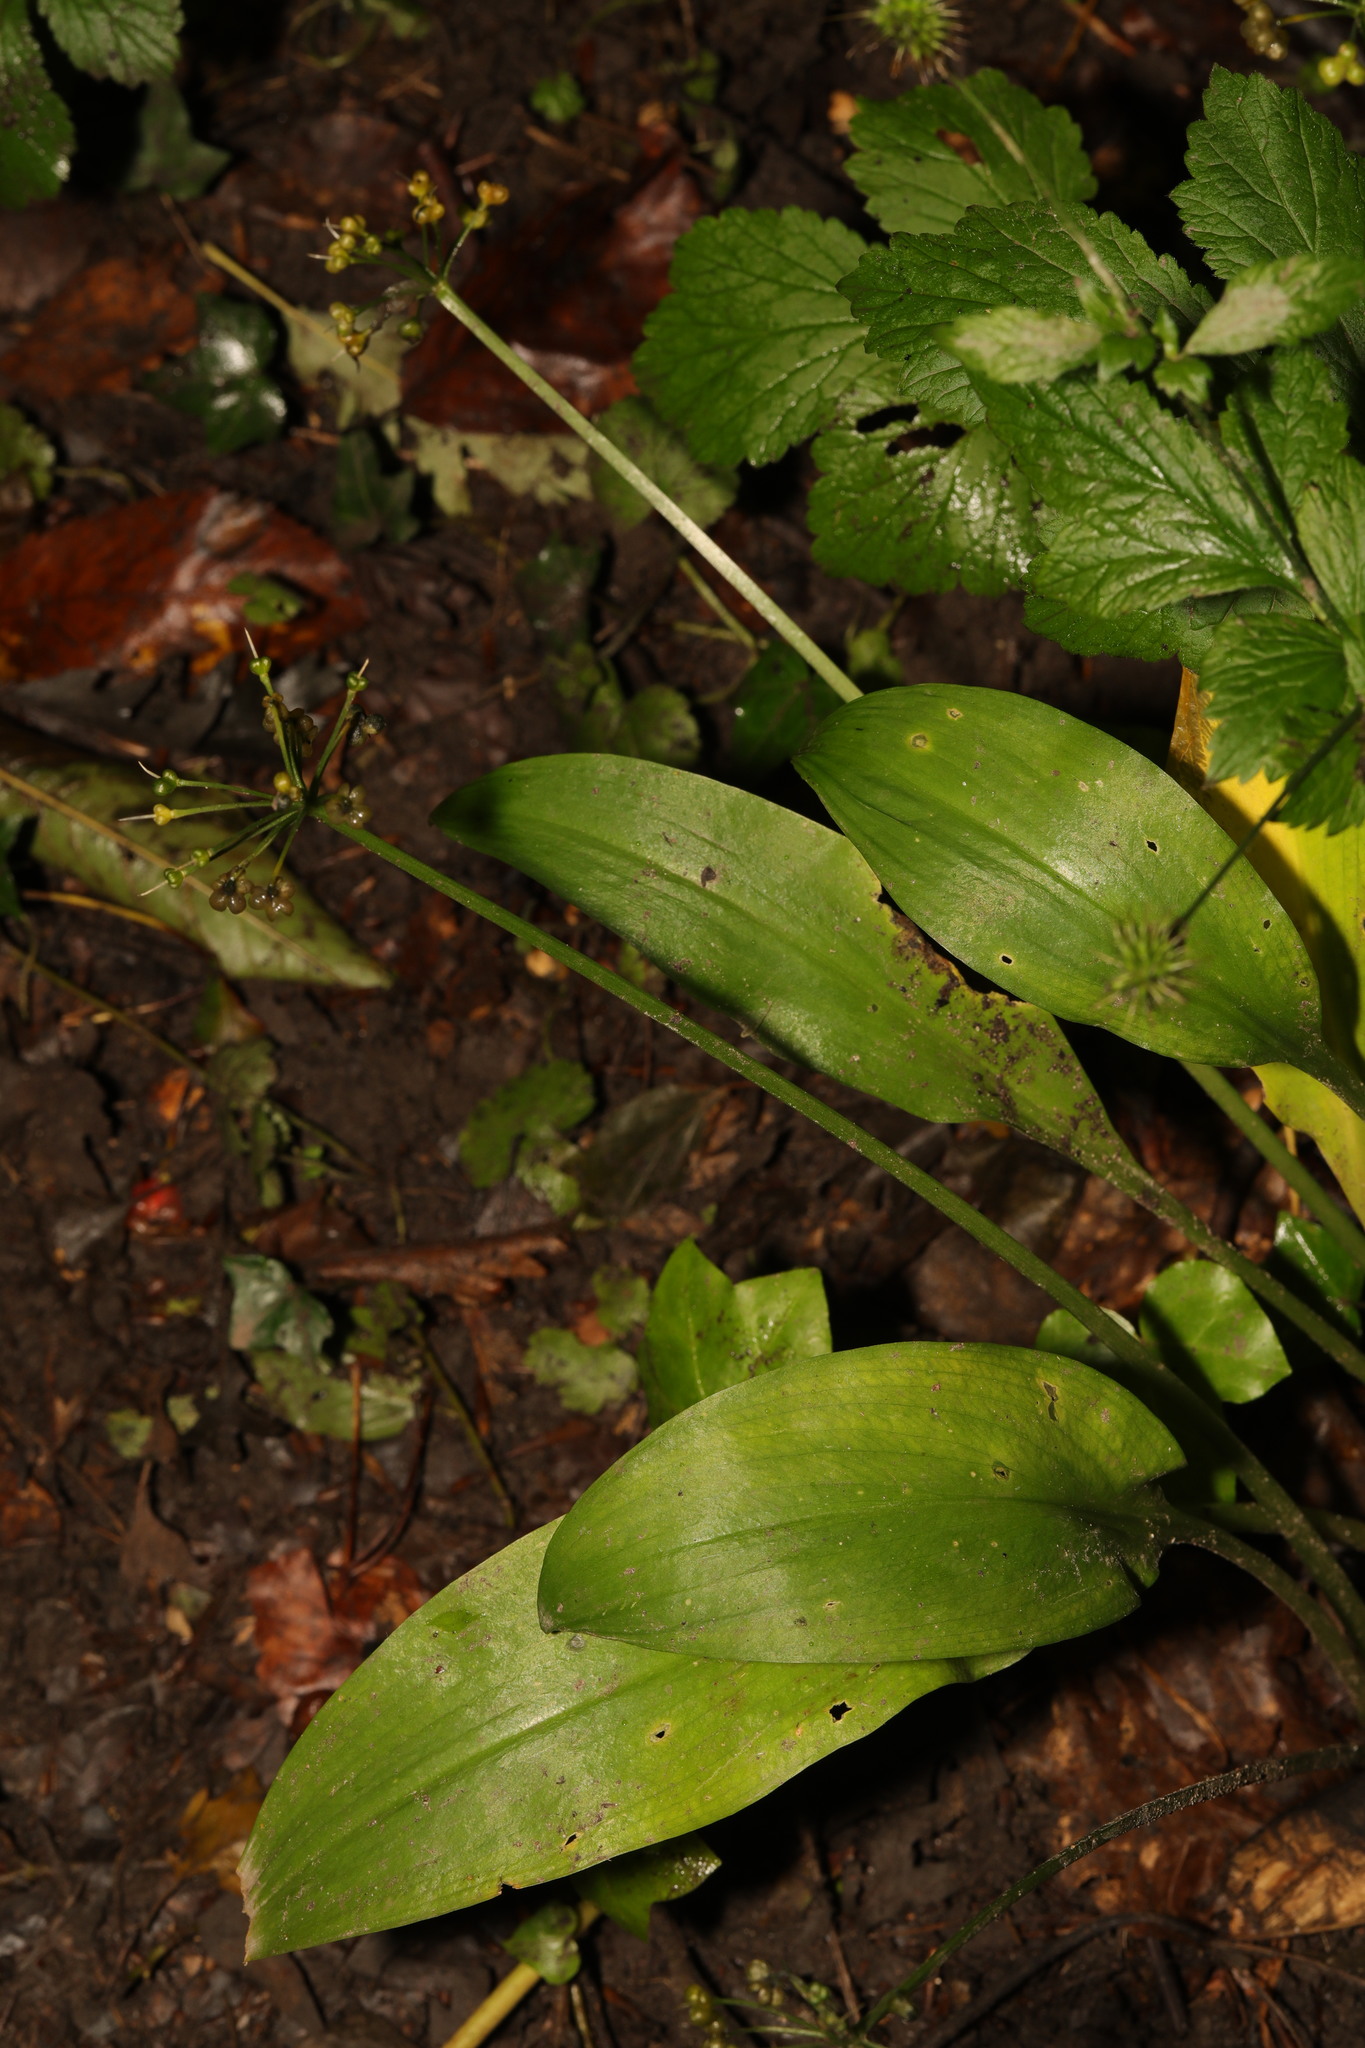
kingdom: Plantae
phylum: Tracheophyta
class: Liliopsida
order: Asparagales
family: Amaryllidaceae
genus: Allium
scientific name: Allium ursinum
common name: Ramsons
